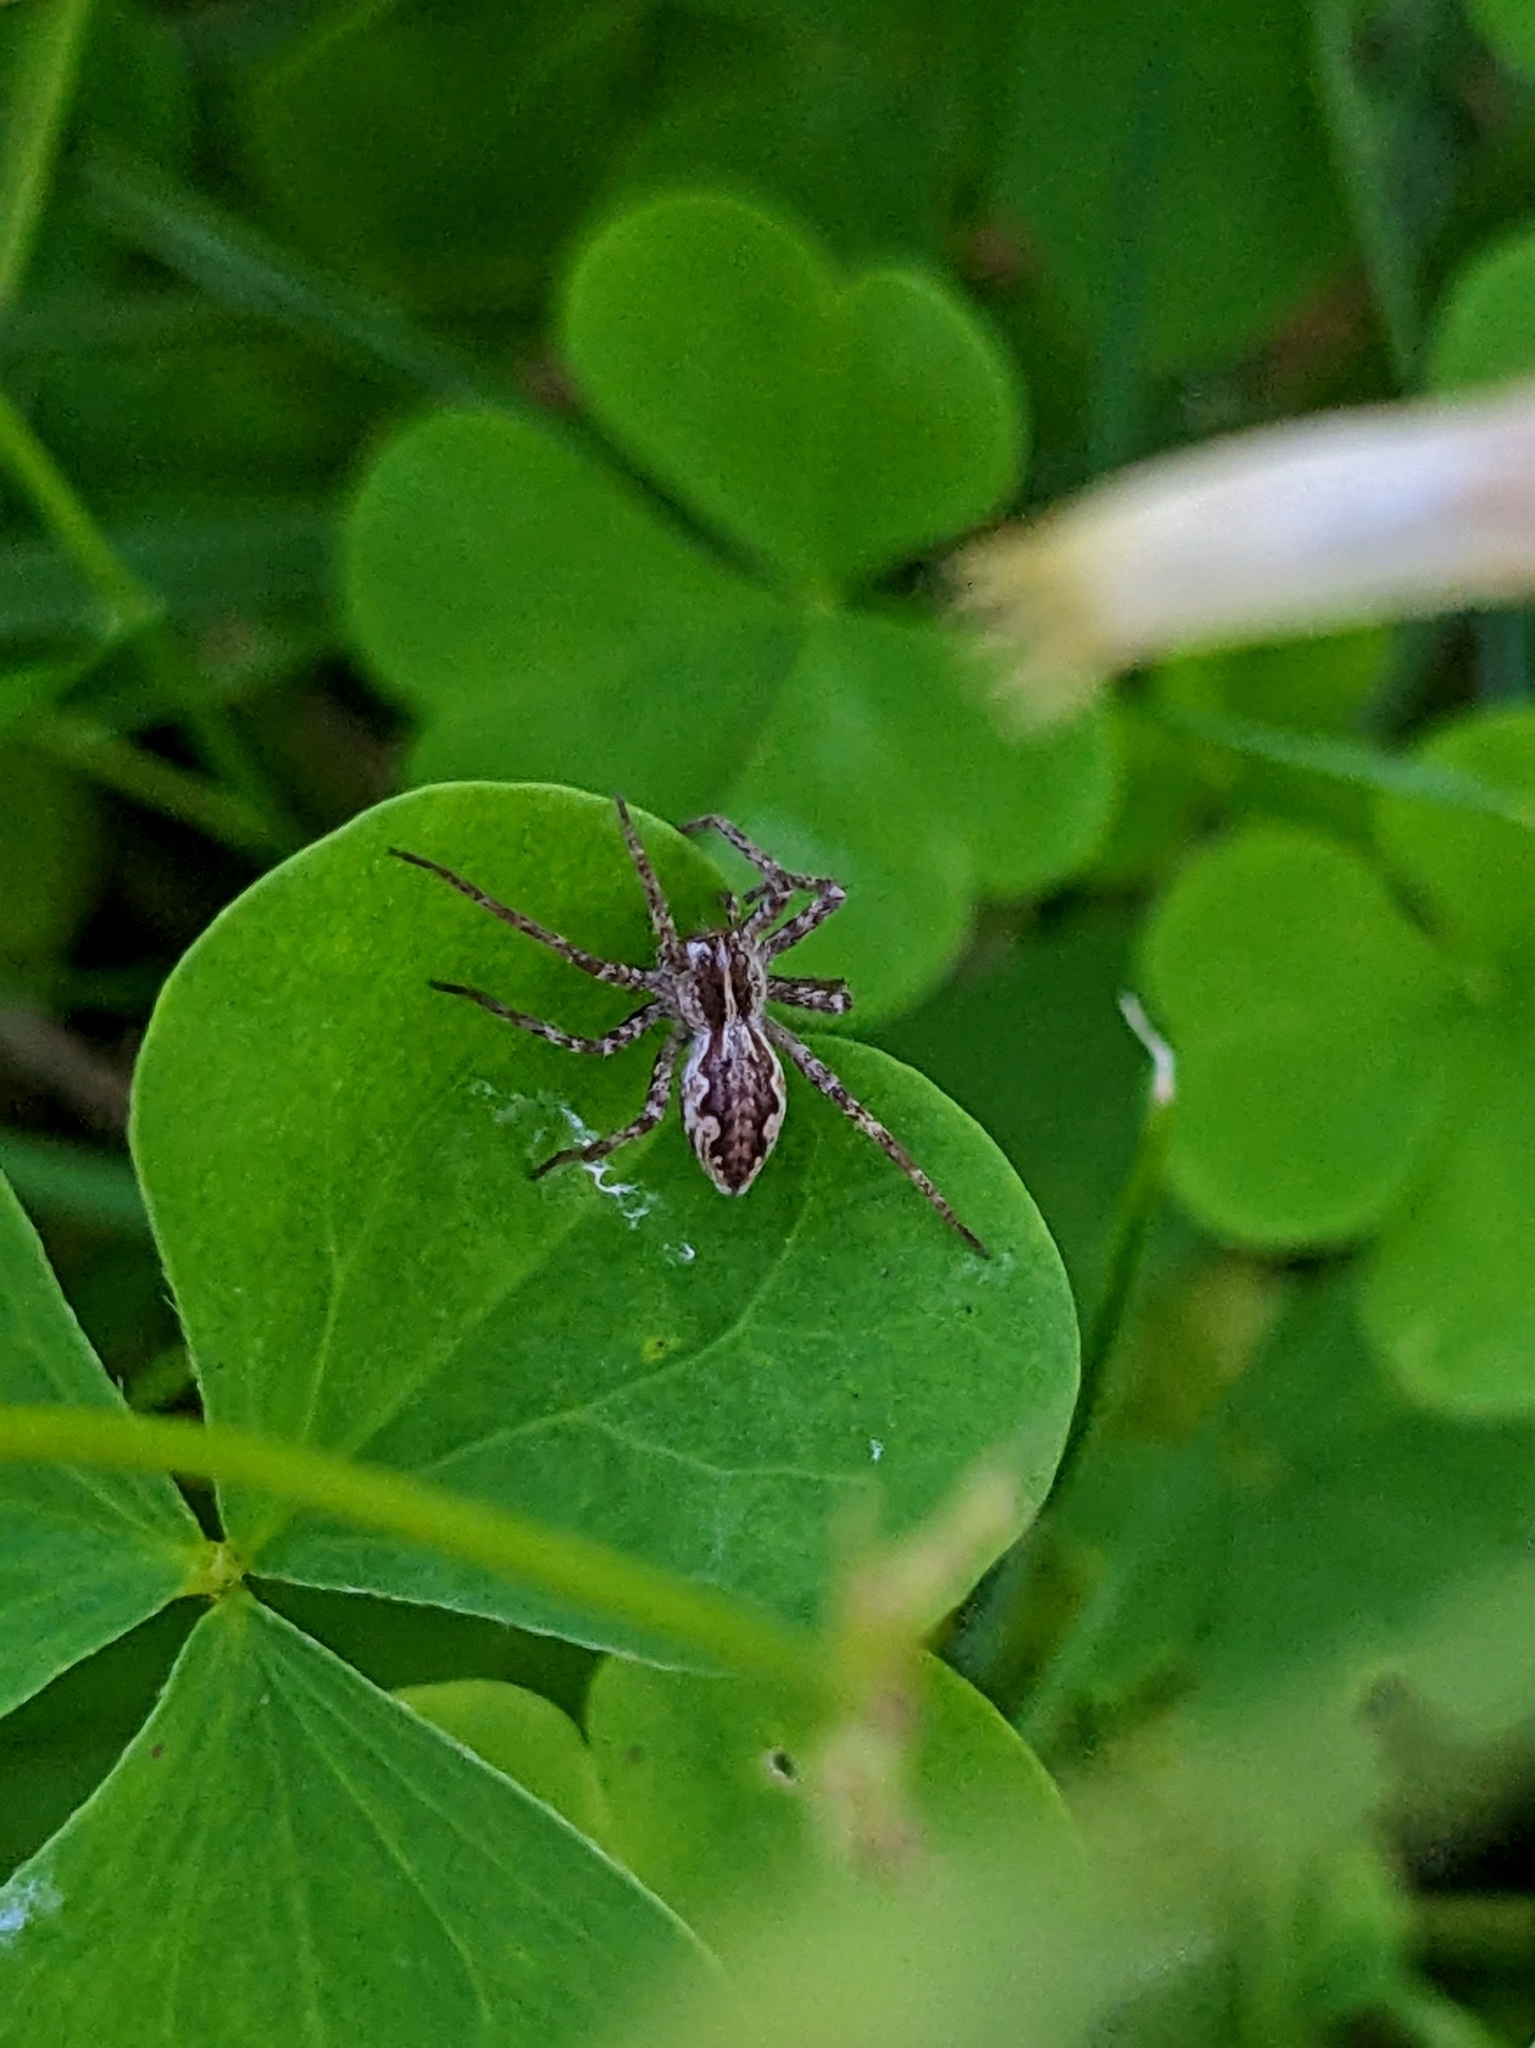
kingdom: Animalia
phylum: Arthropoda
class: Arachnida
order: Araneae
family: Pisauridae
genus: Pisaura
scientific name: Pisaura mirabilis
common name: Tent spider
